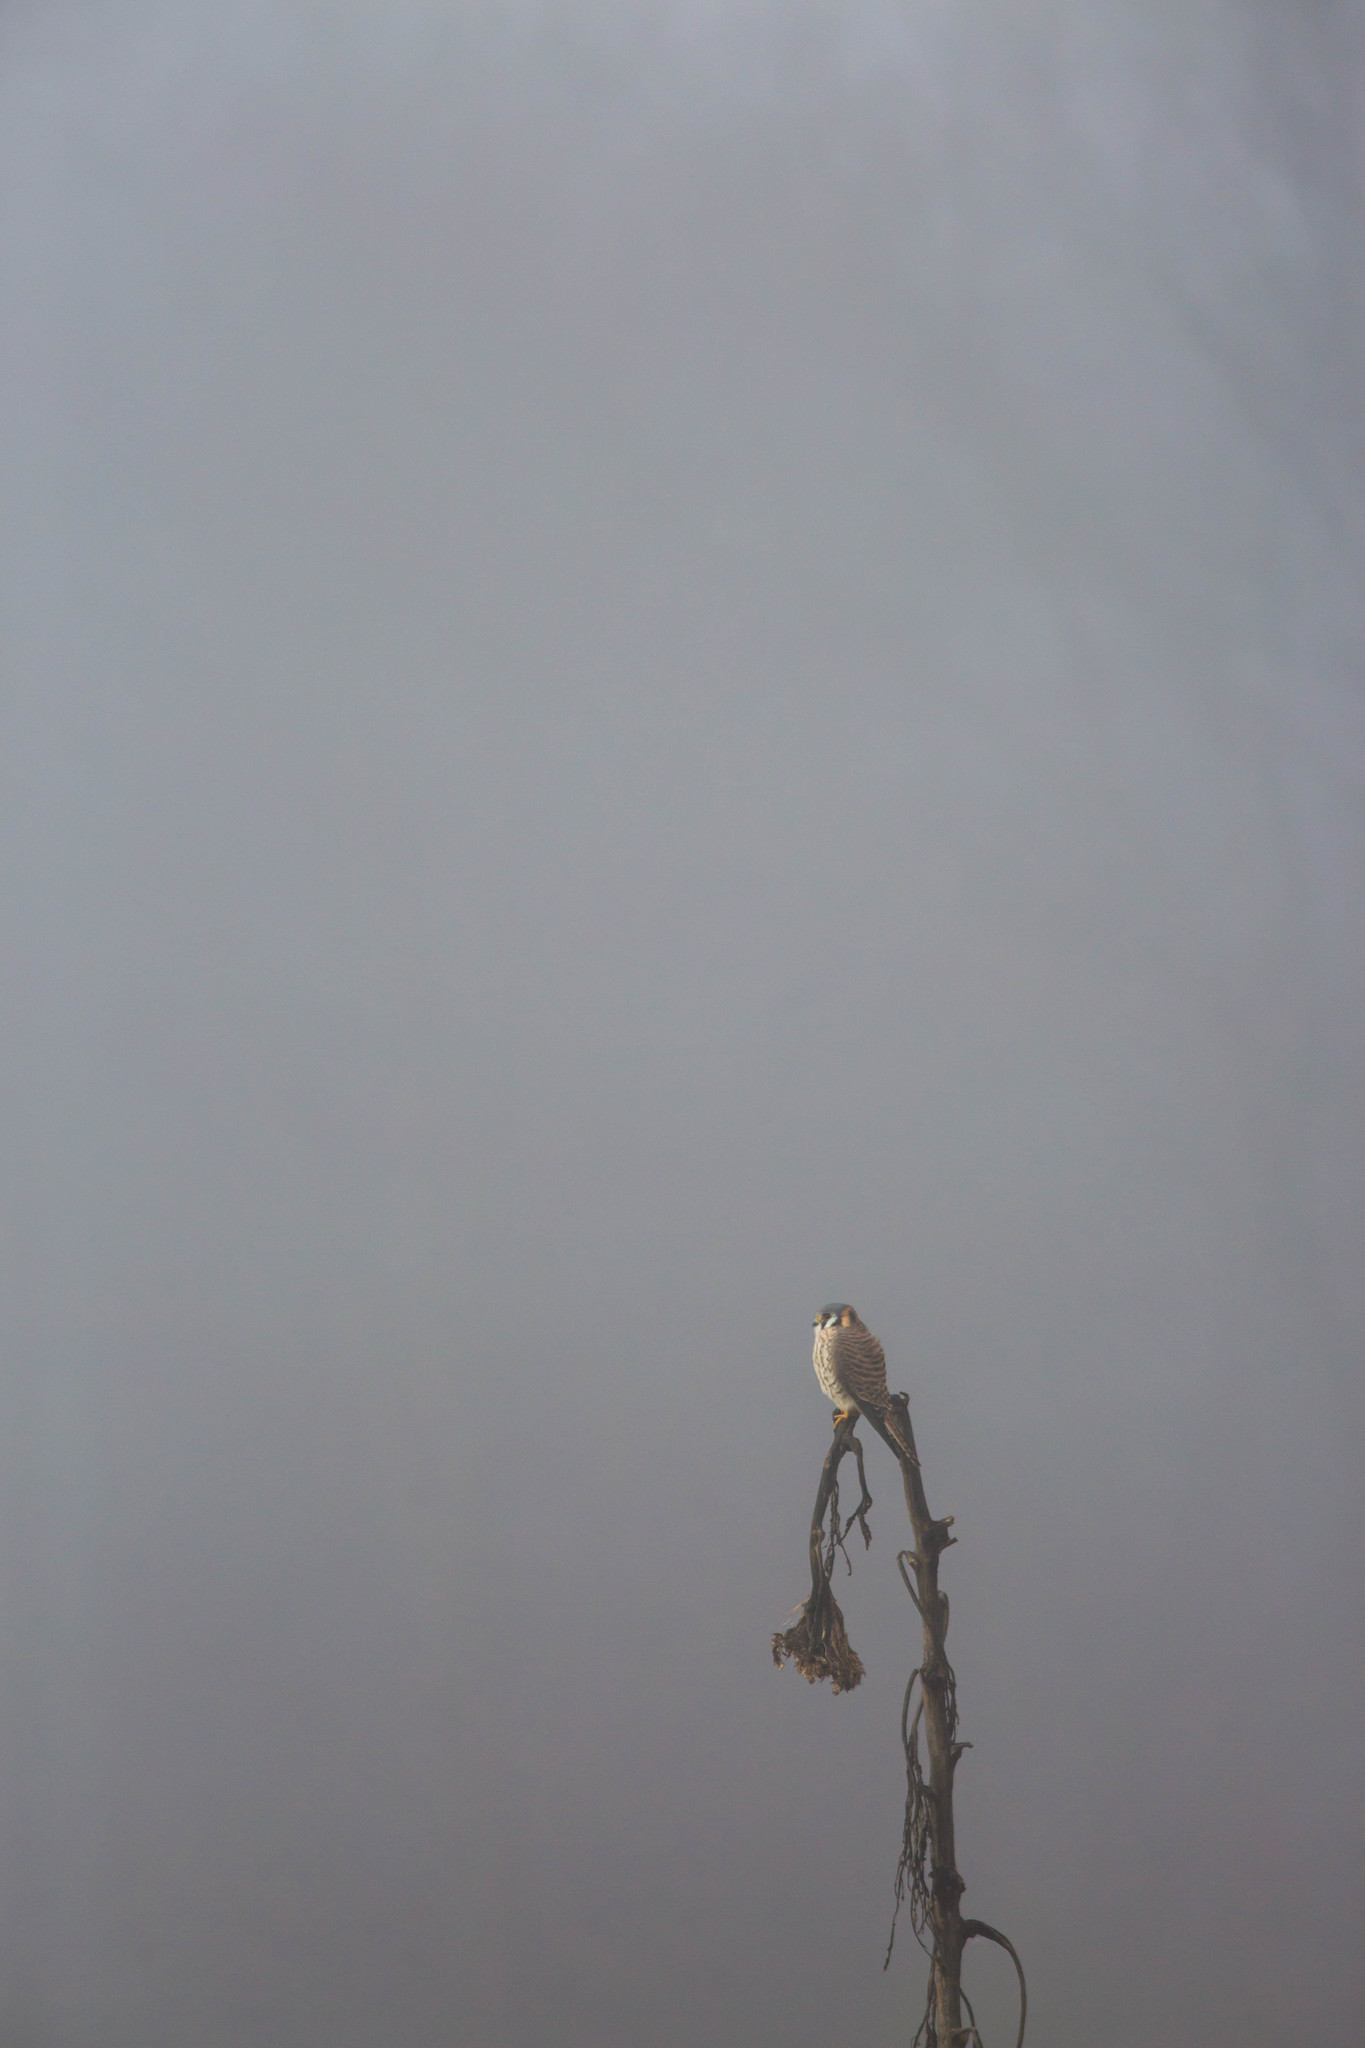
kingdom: Animalia
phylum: Chordata
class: Aves
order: Falconiformes
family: Falconidae
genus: Falco
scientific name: Falco sparverius
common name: American kestrel
